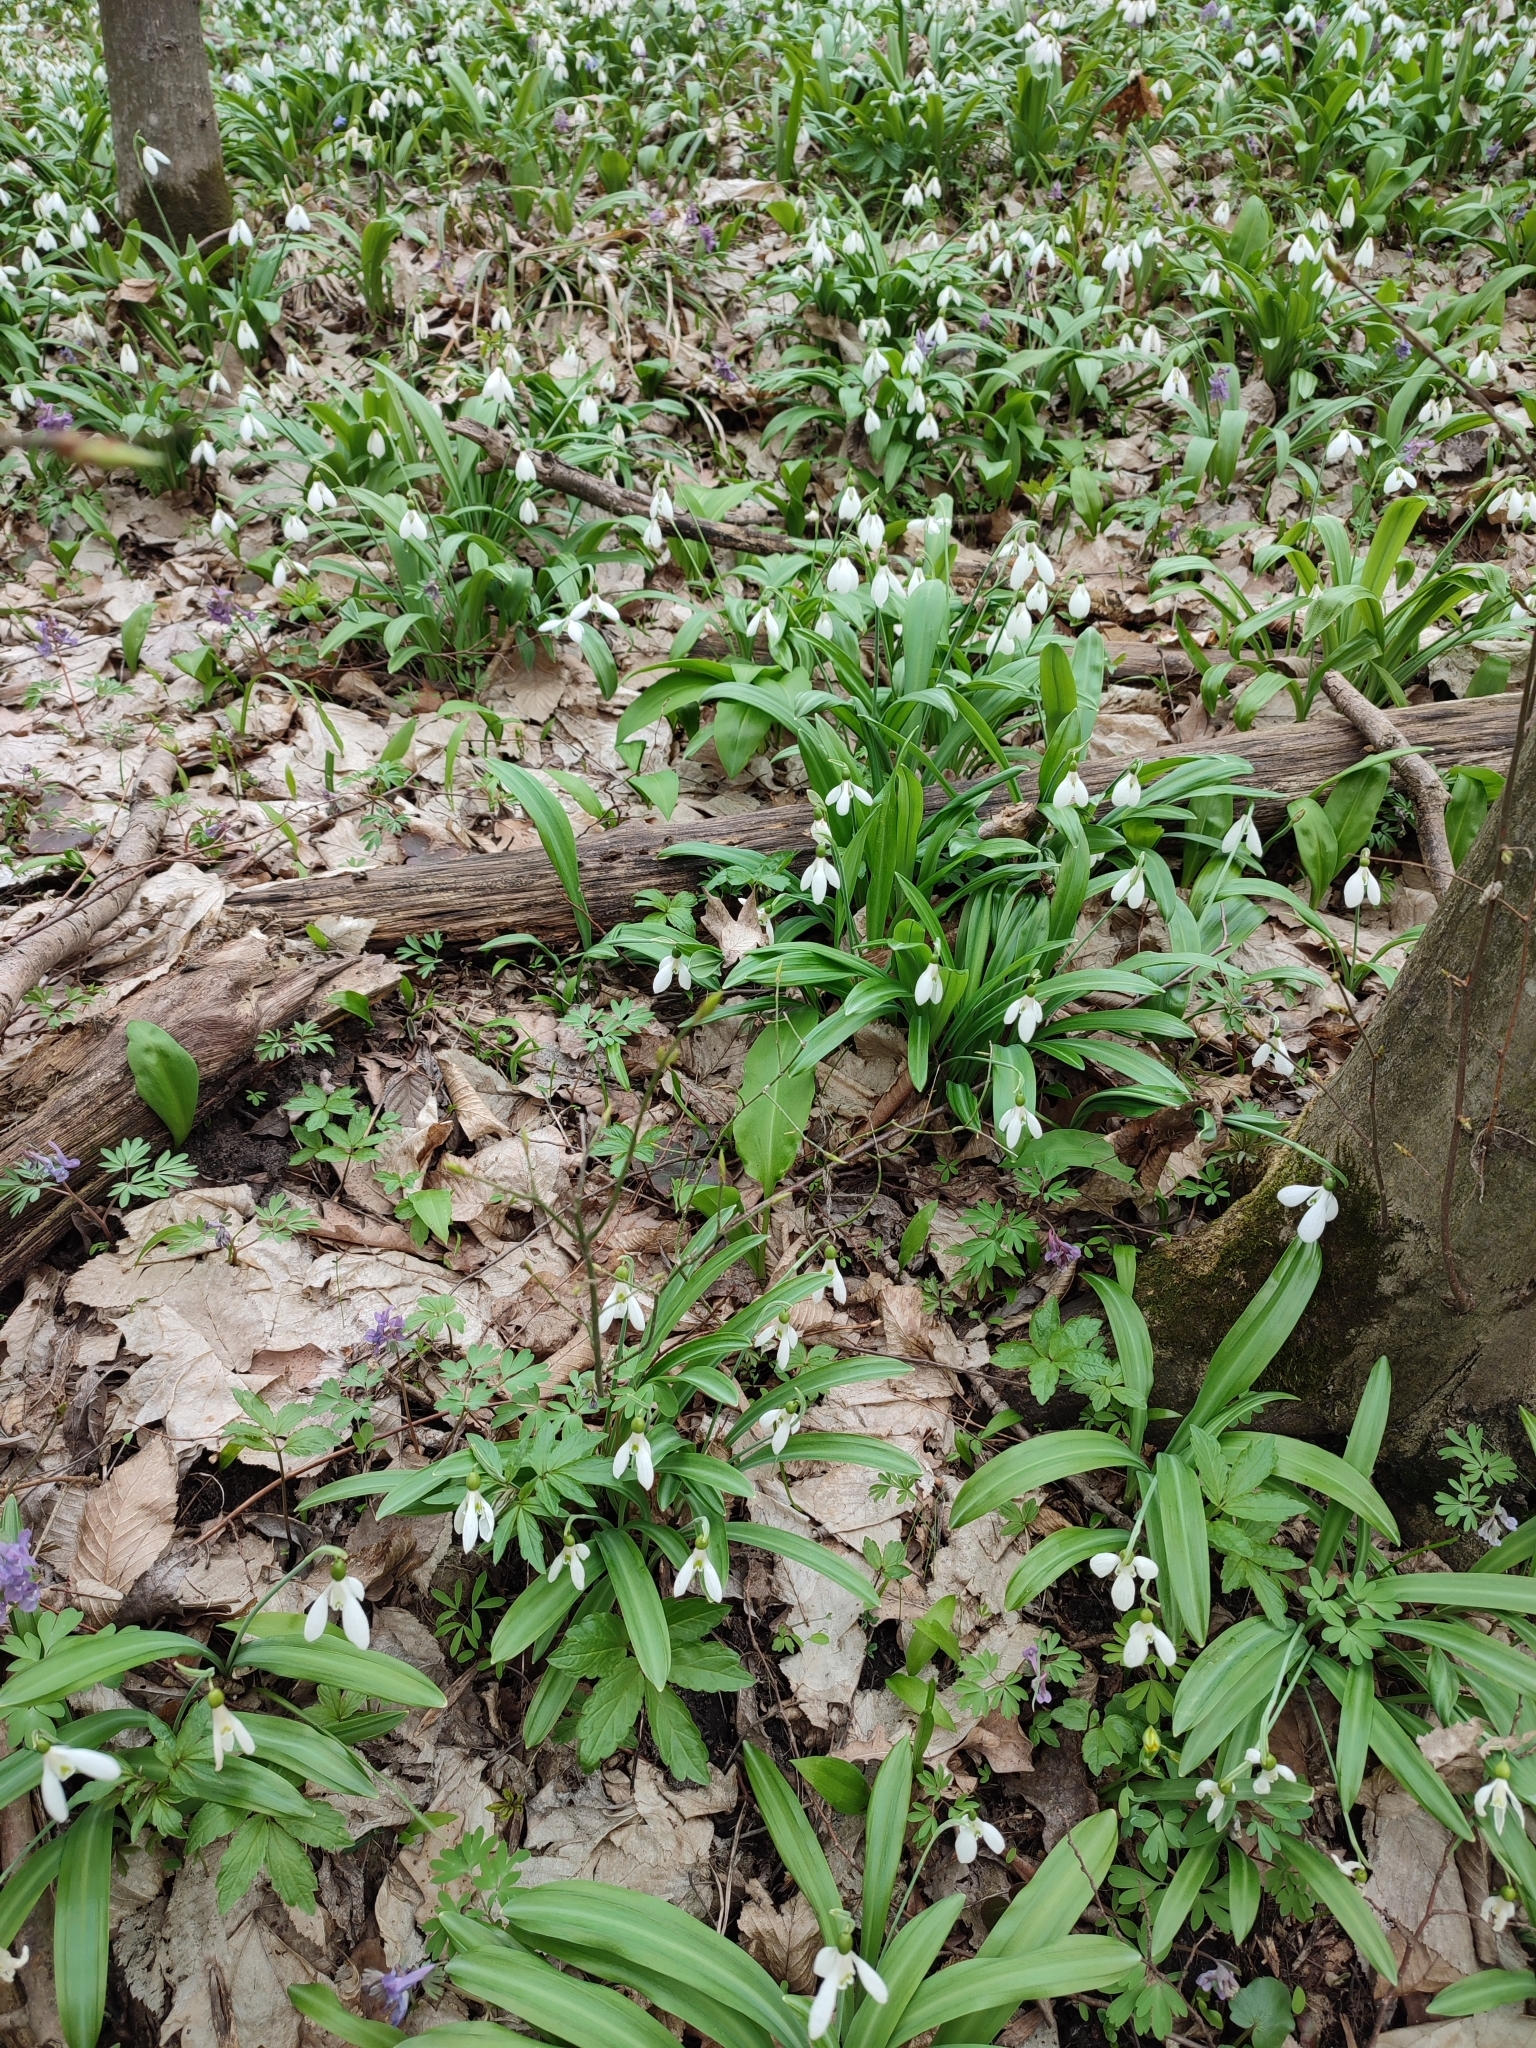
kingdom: Plantae
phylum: Tracheophyta
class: Liliopsida
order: Asparagales
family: Amaryllidaceae
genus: Galanthus
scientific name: Galanthus plicatus
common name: Pleated snowdrop
